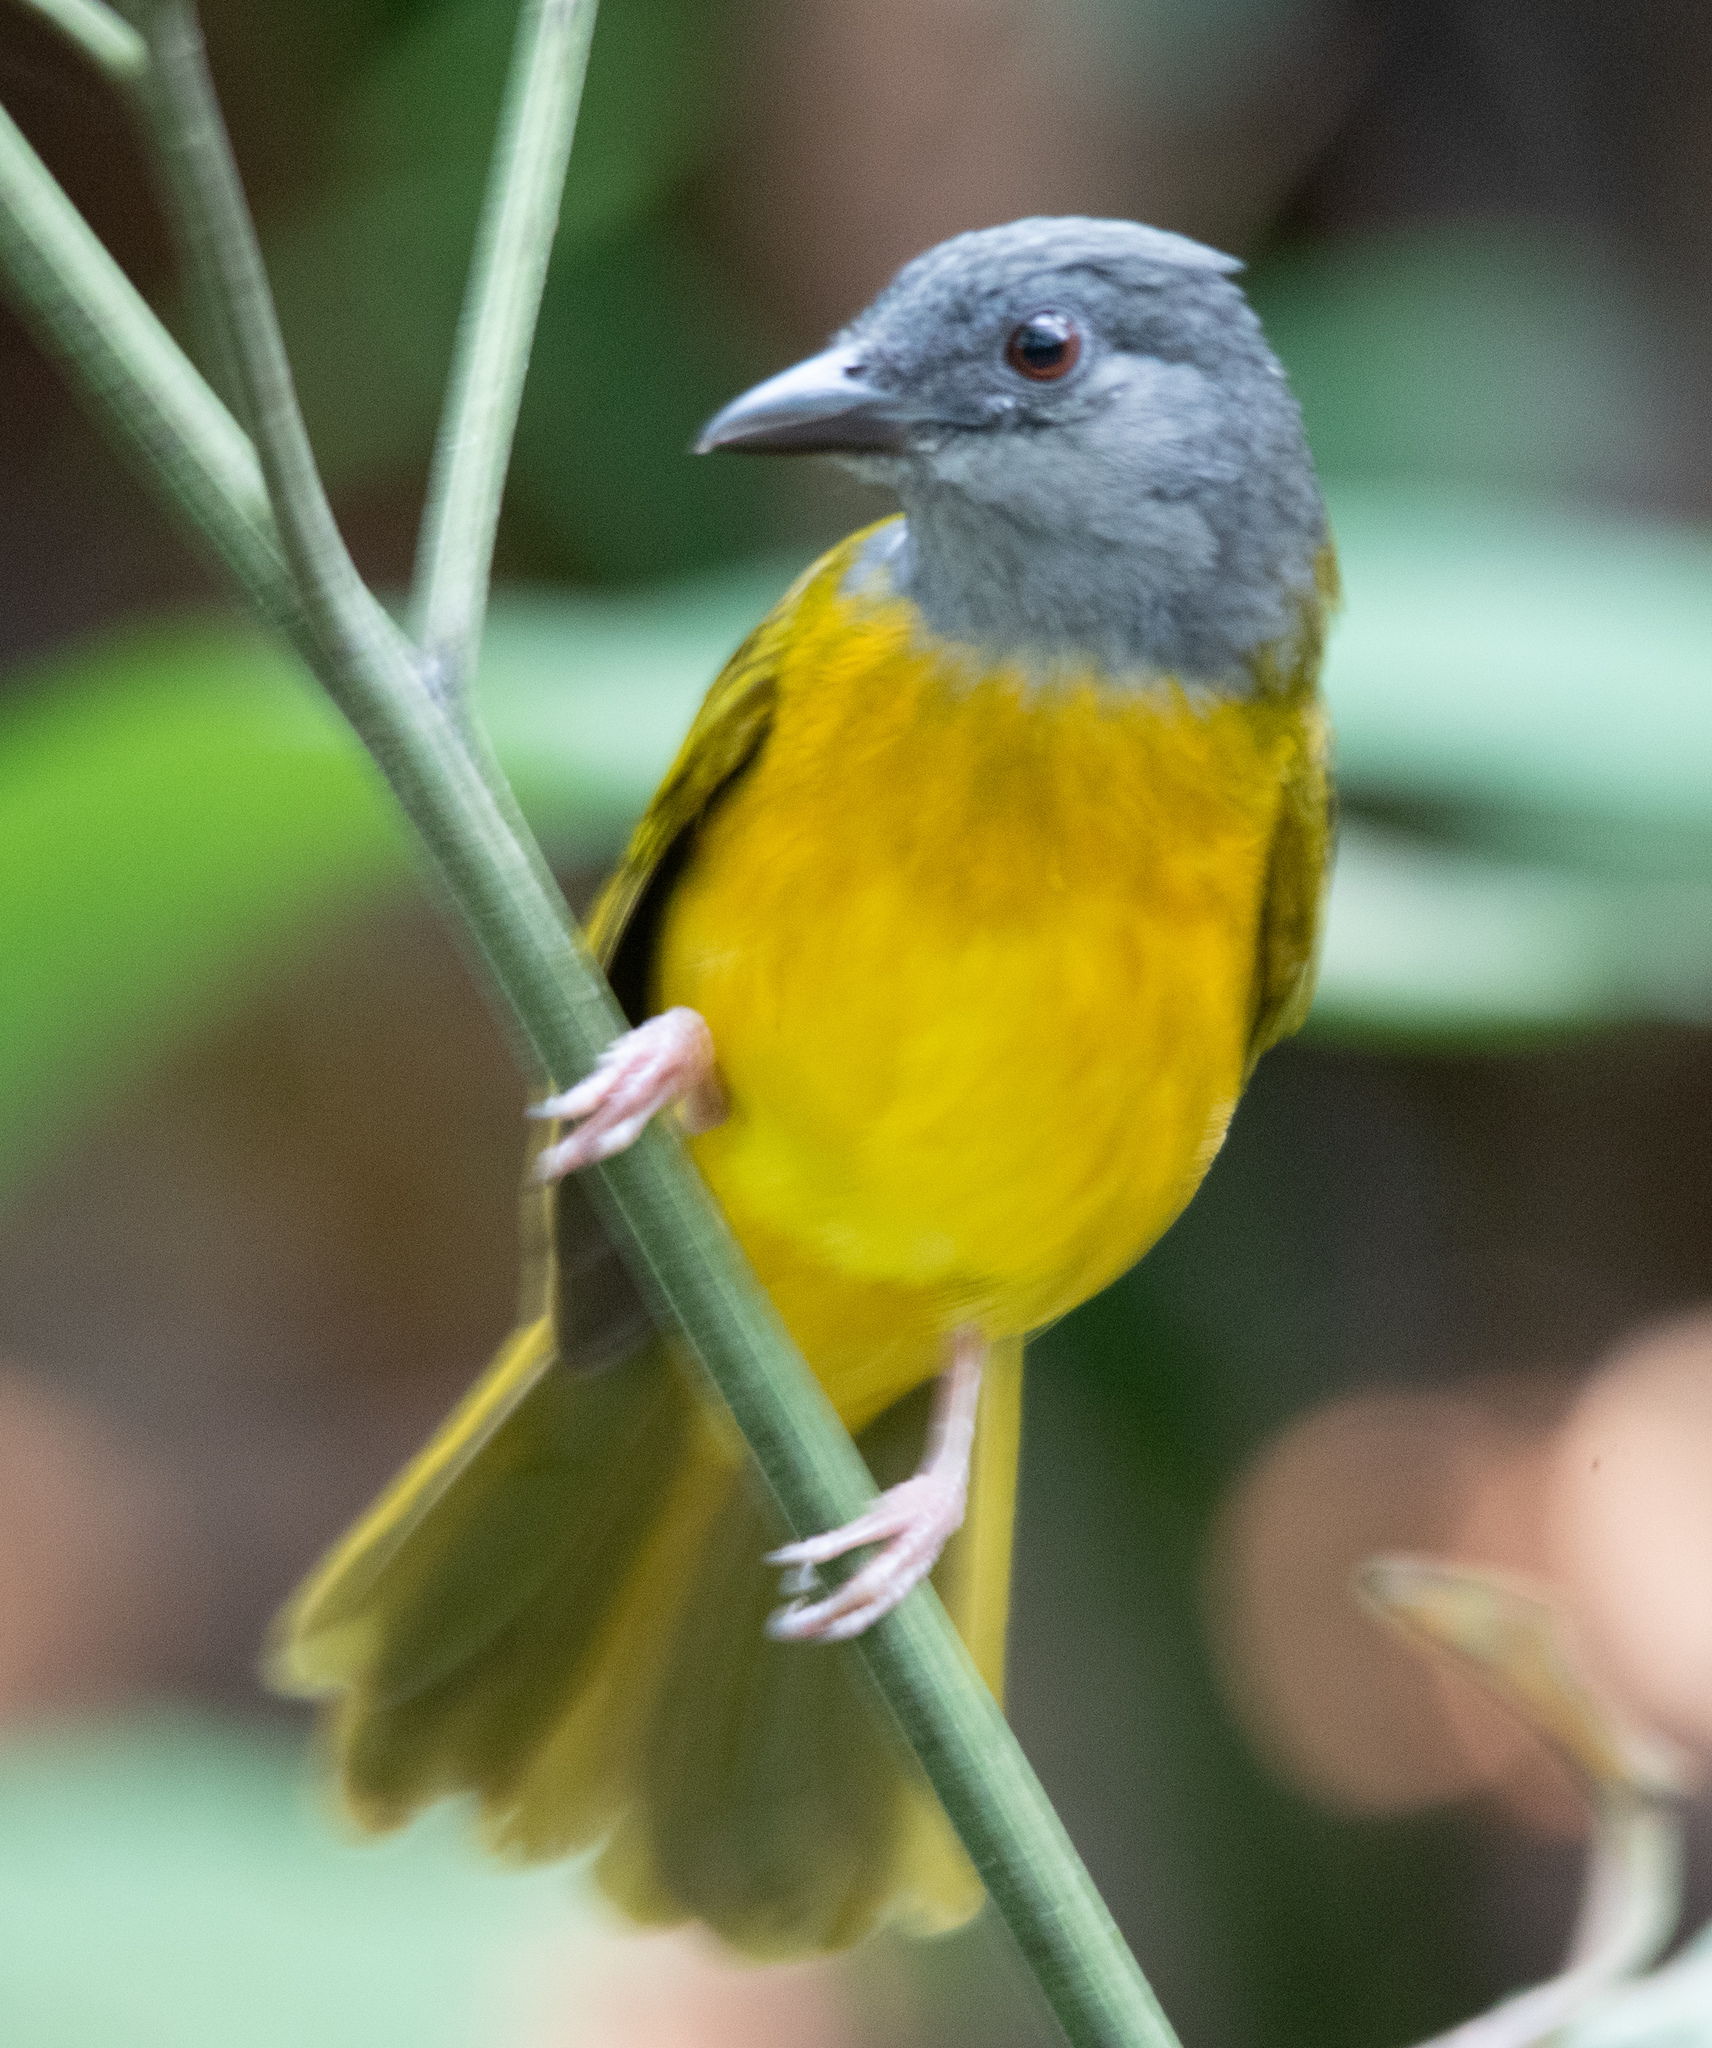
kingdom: Animalia
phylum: Chordata
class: Aves
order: Passeriformes
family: Thraupidae
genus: Eucometis
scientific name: Eucometis penicillata
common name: Grey-headed tanager
